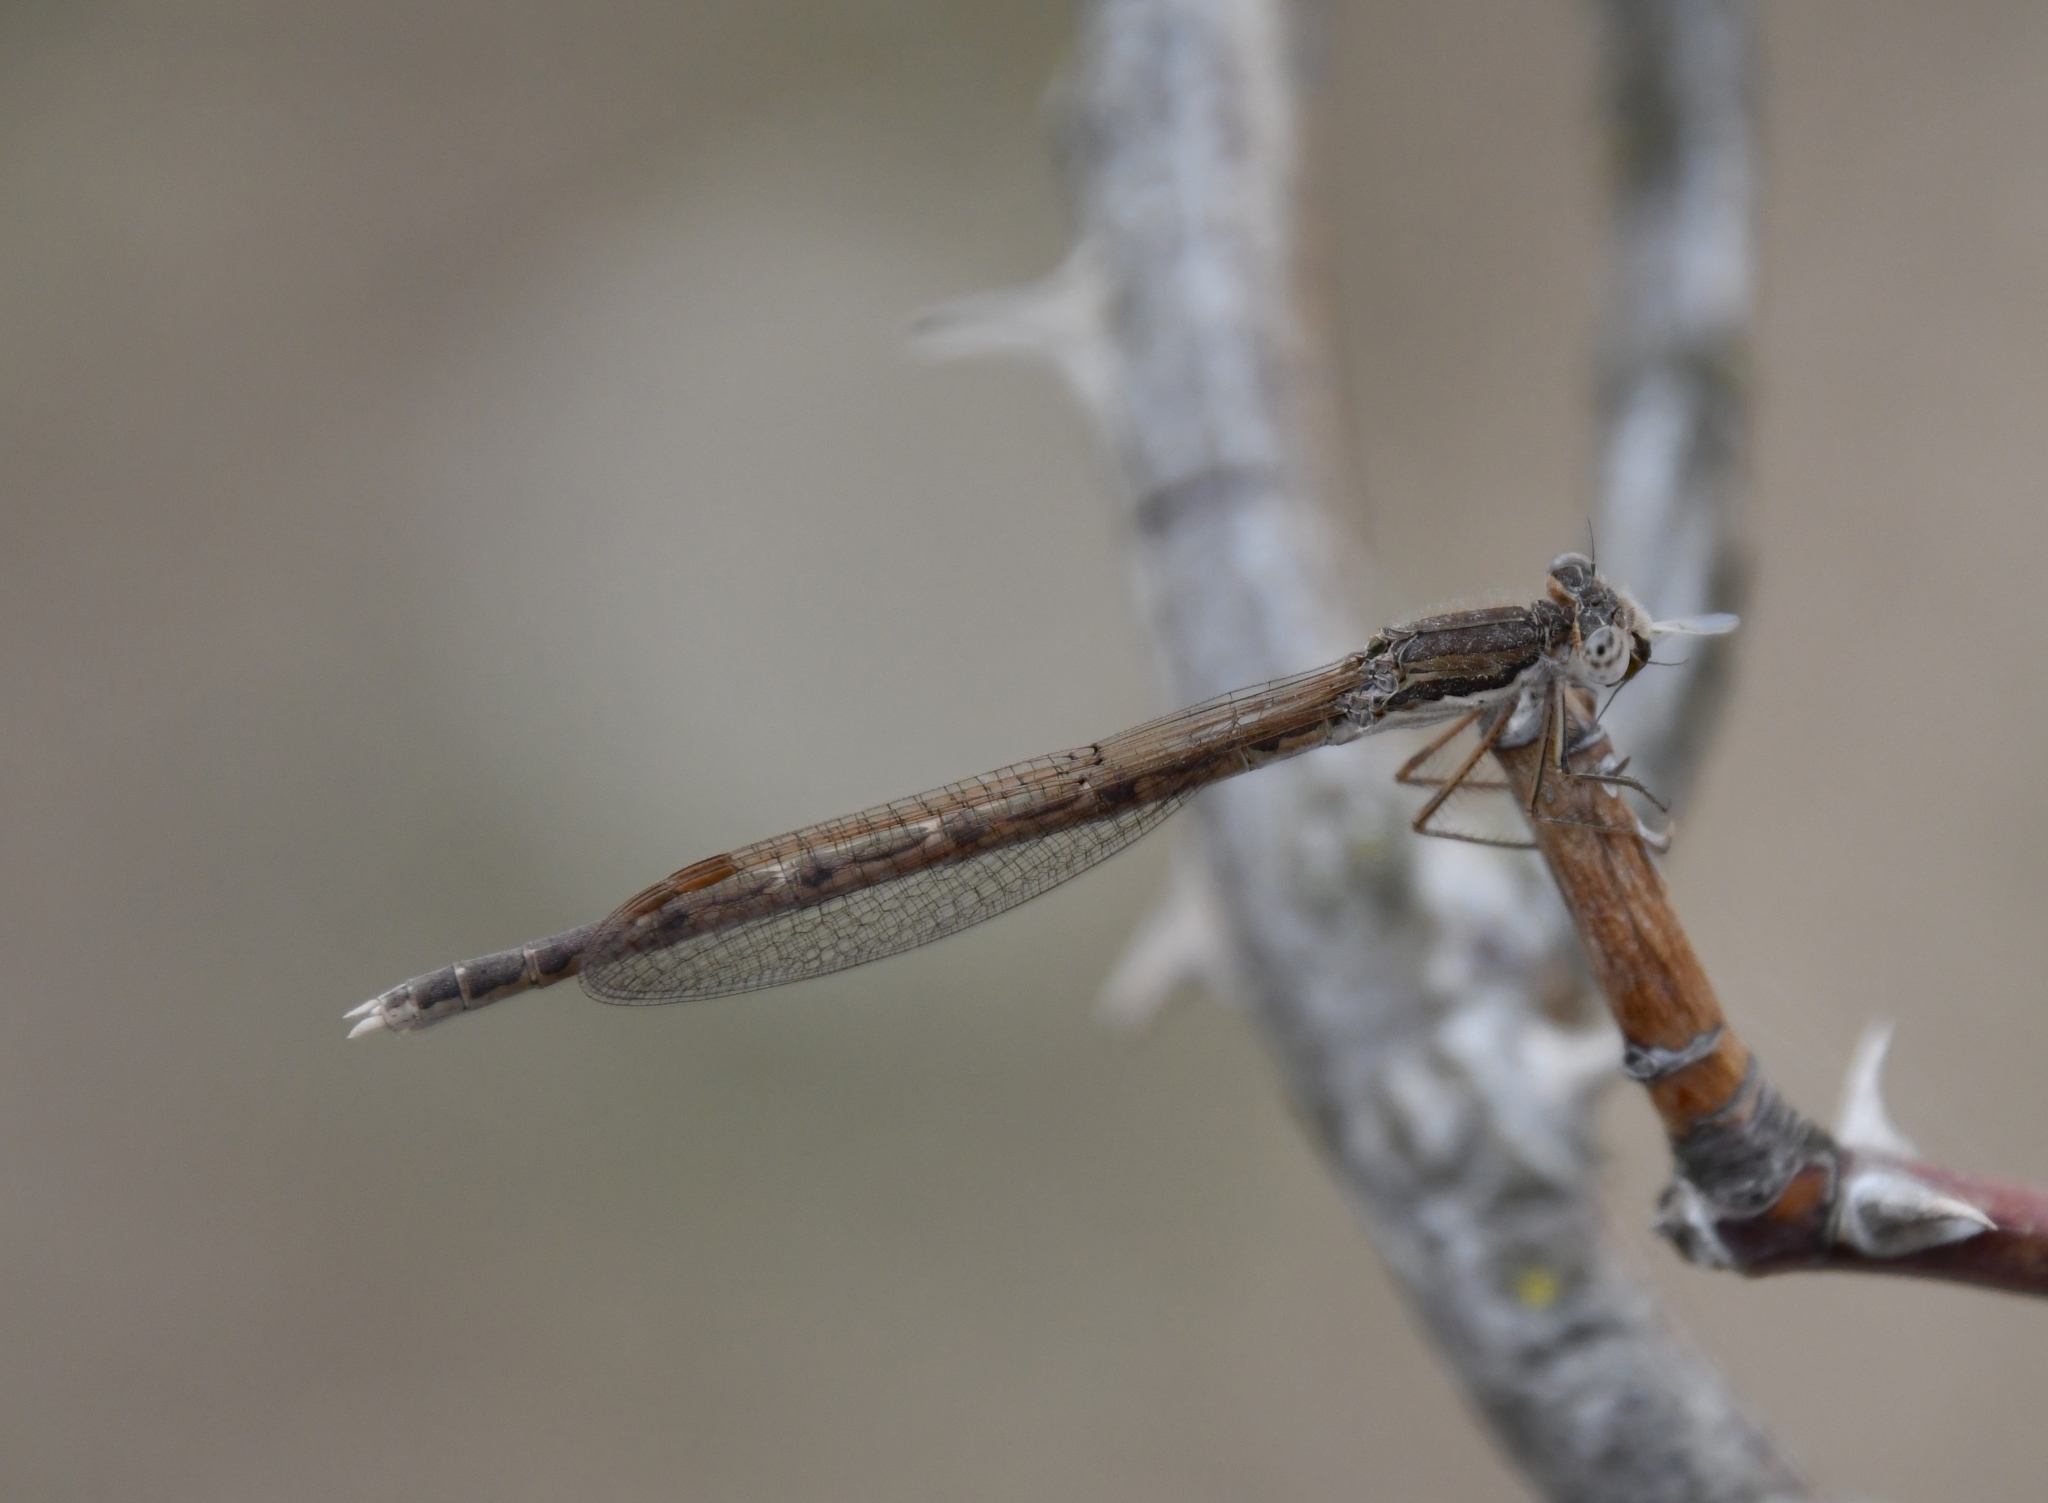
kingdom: Animalia
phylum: Arthropoda
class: Insecta
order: Odonata
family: Lestidae
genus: Sympecma
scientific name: Sympecma fusca
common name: Common winter damsel
